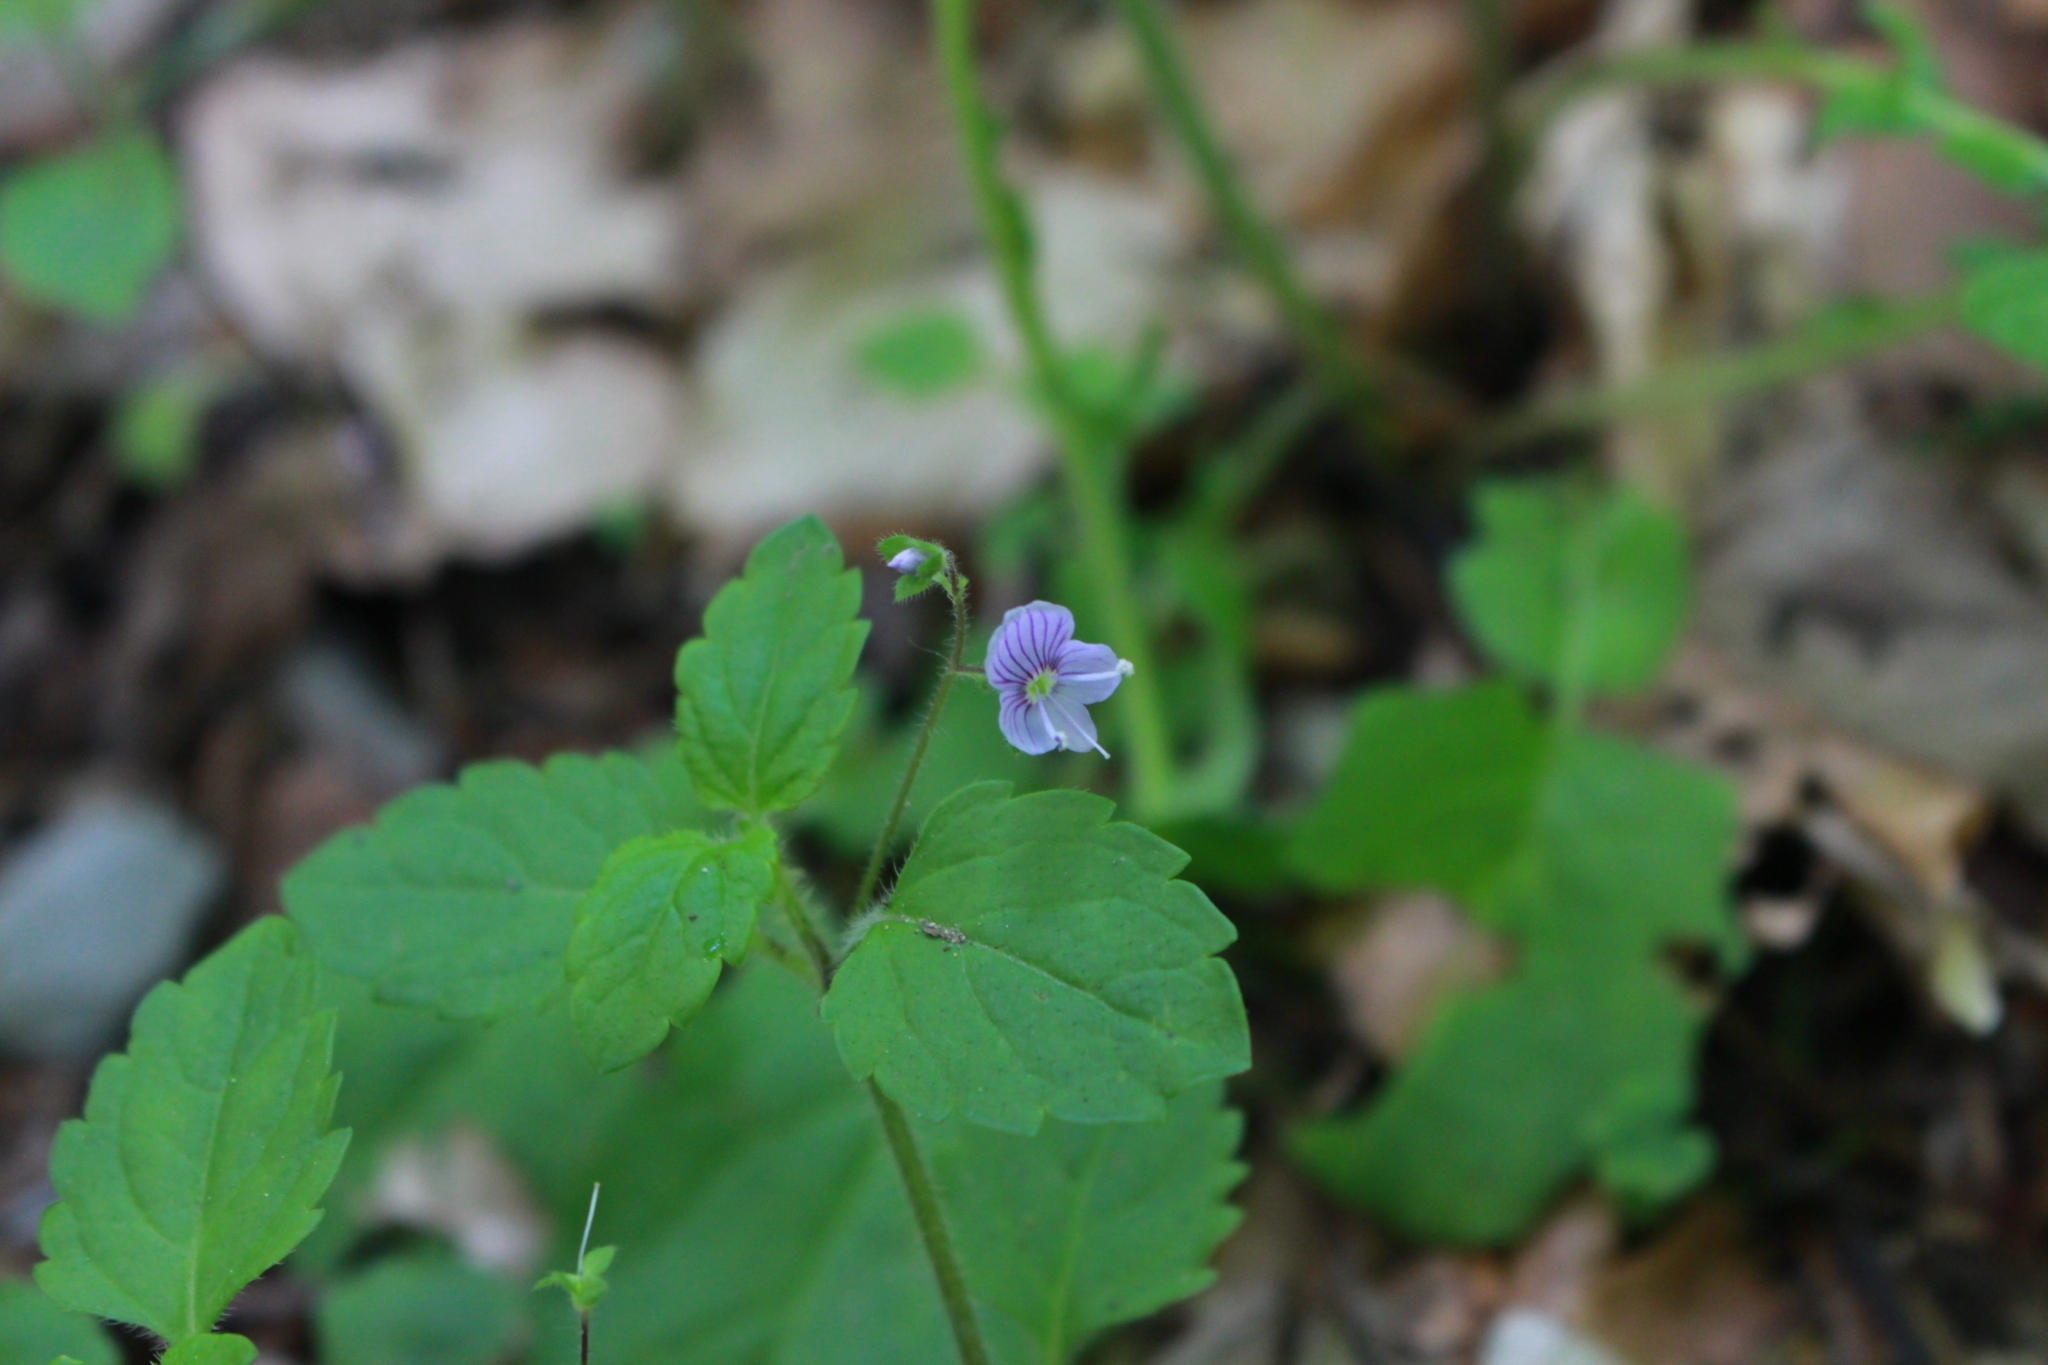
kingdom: Plantae
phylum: Tracheophyta
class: Magnoliopsida
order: Lamiales
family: Plantaginaceae
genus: Veronica
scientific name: Veronica montana
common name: Wood speedwell
